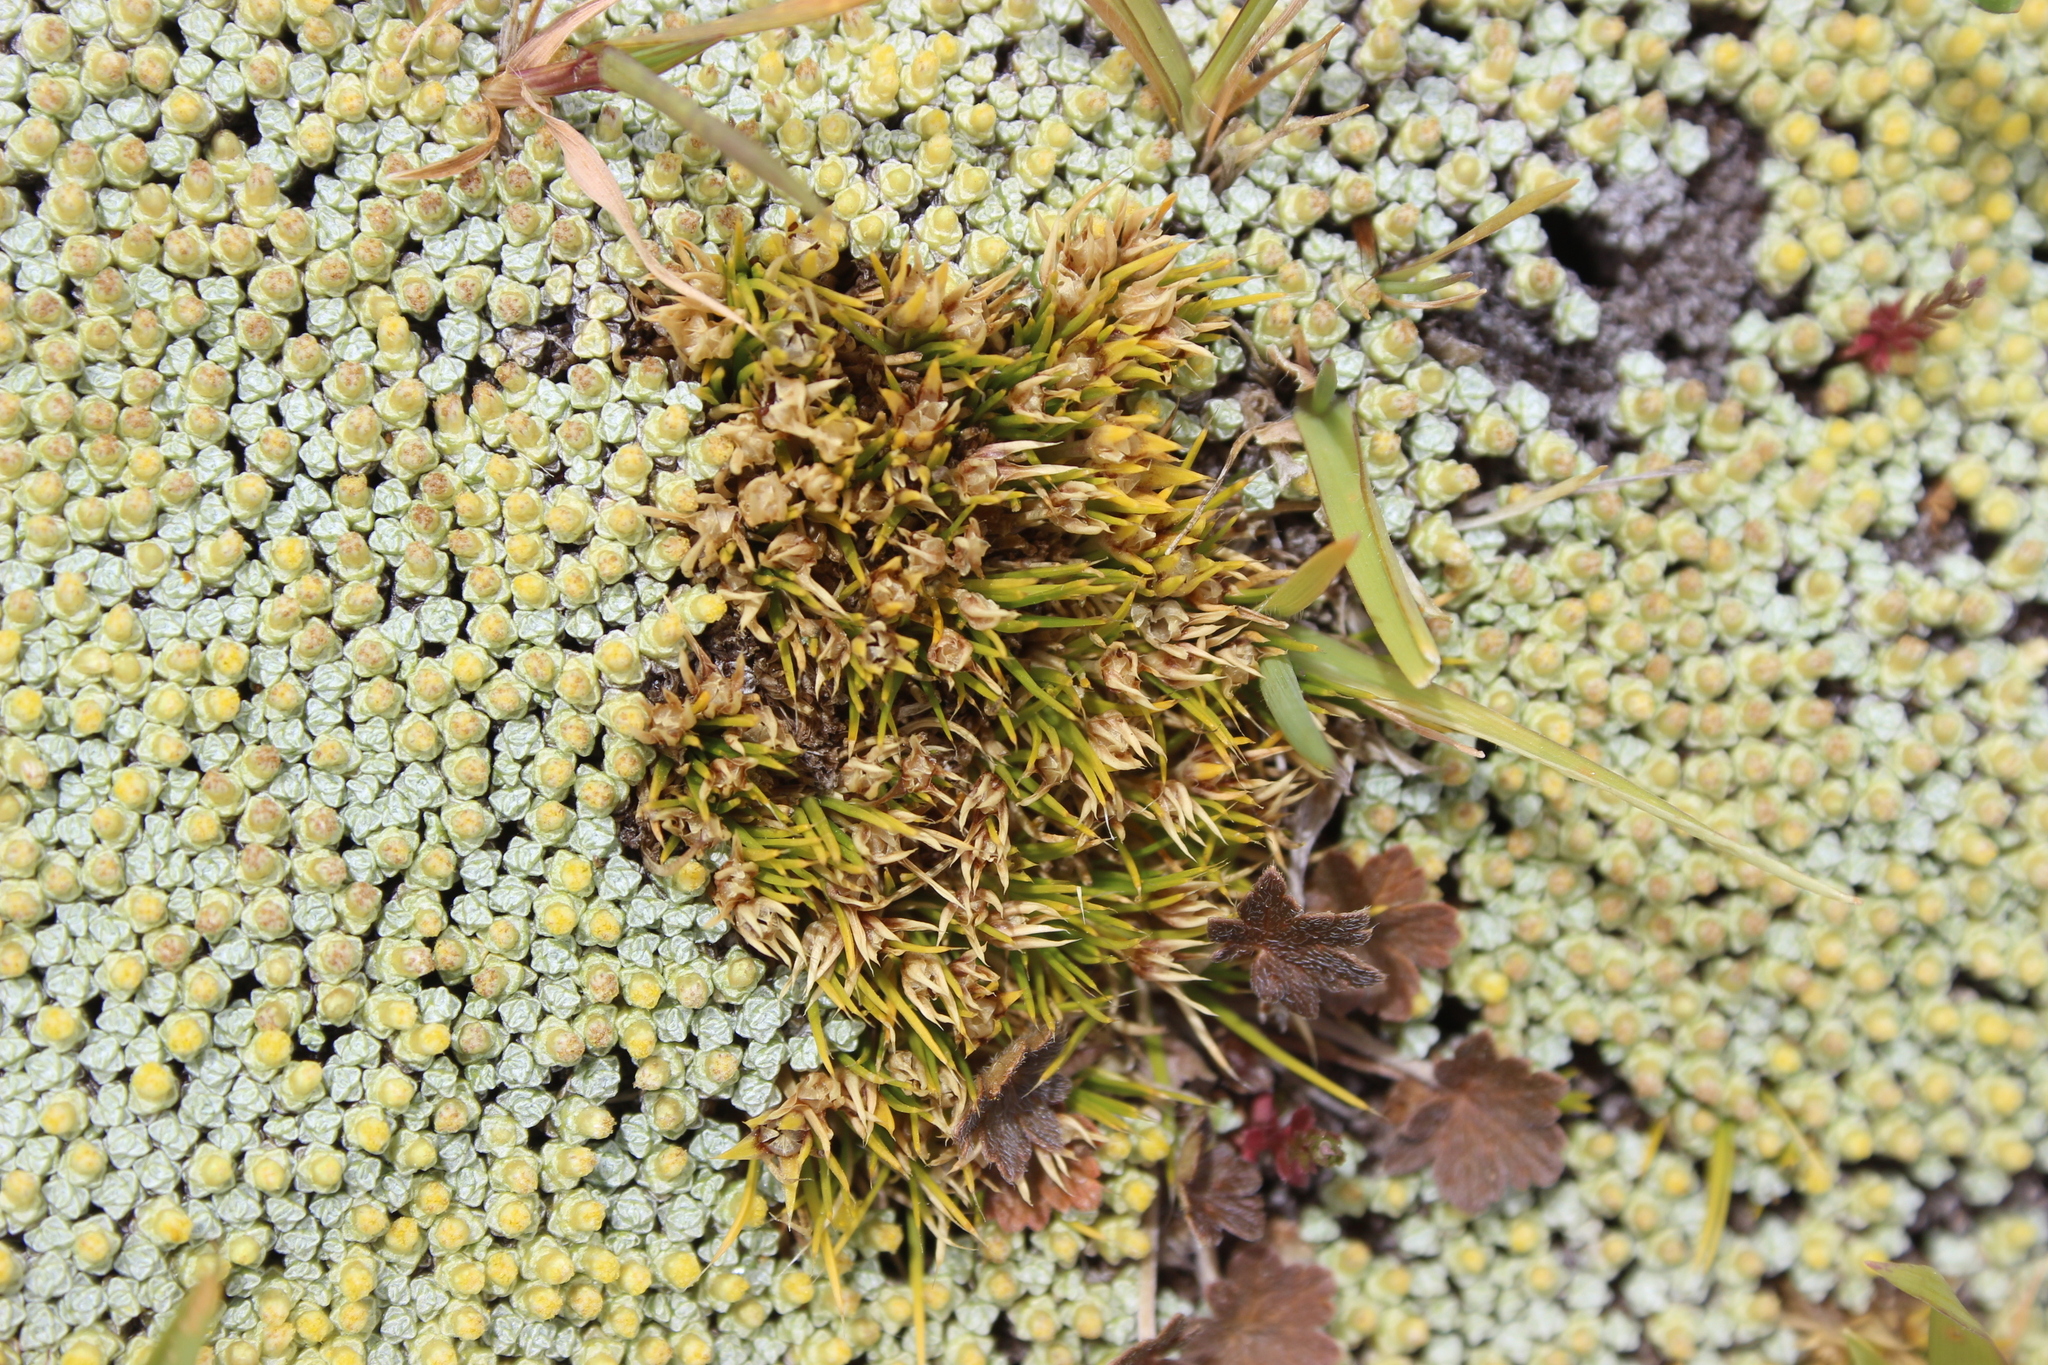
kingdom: Plantae
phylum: Tracheophyta
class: Magnoliopsida
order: Caryophyllales
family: Caryophyllaceae
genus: Colobanthus
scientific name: Colobanthus strictus
